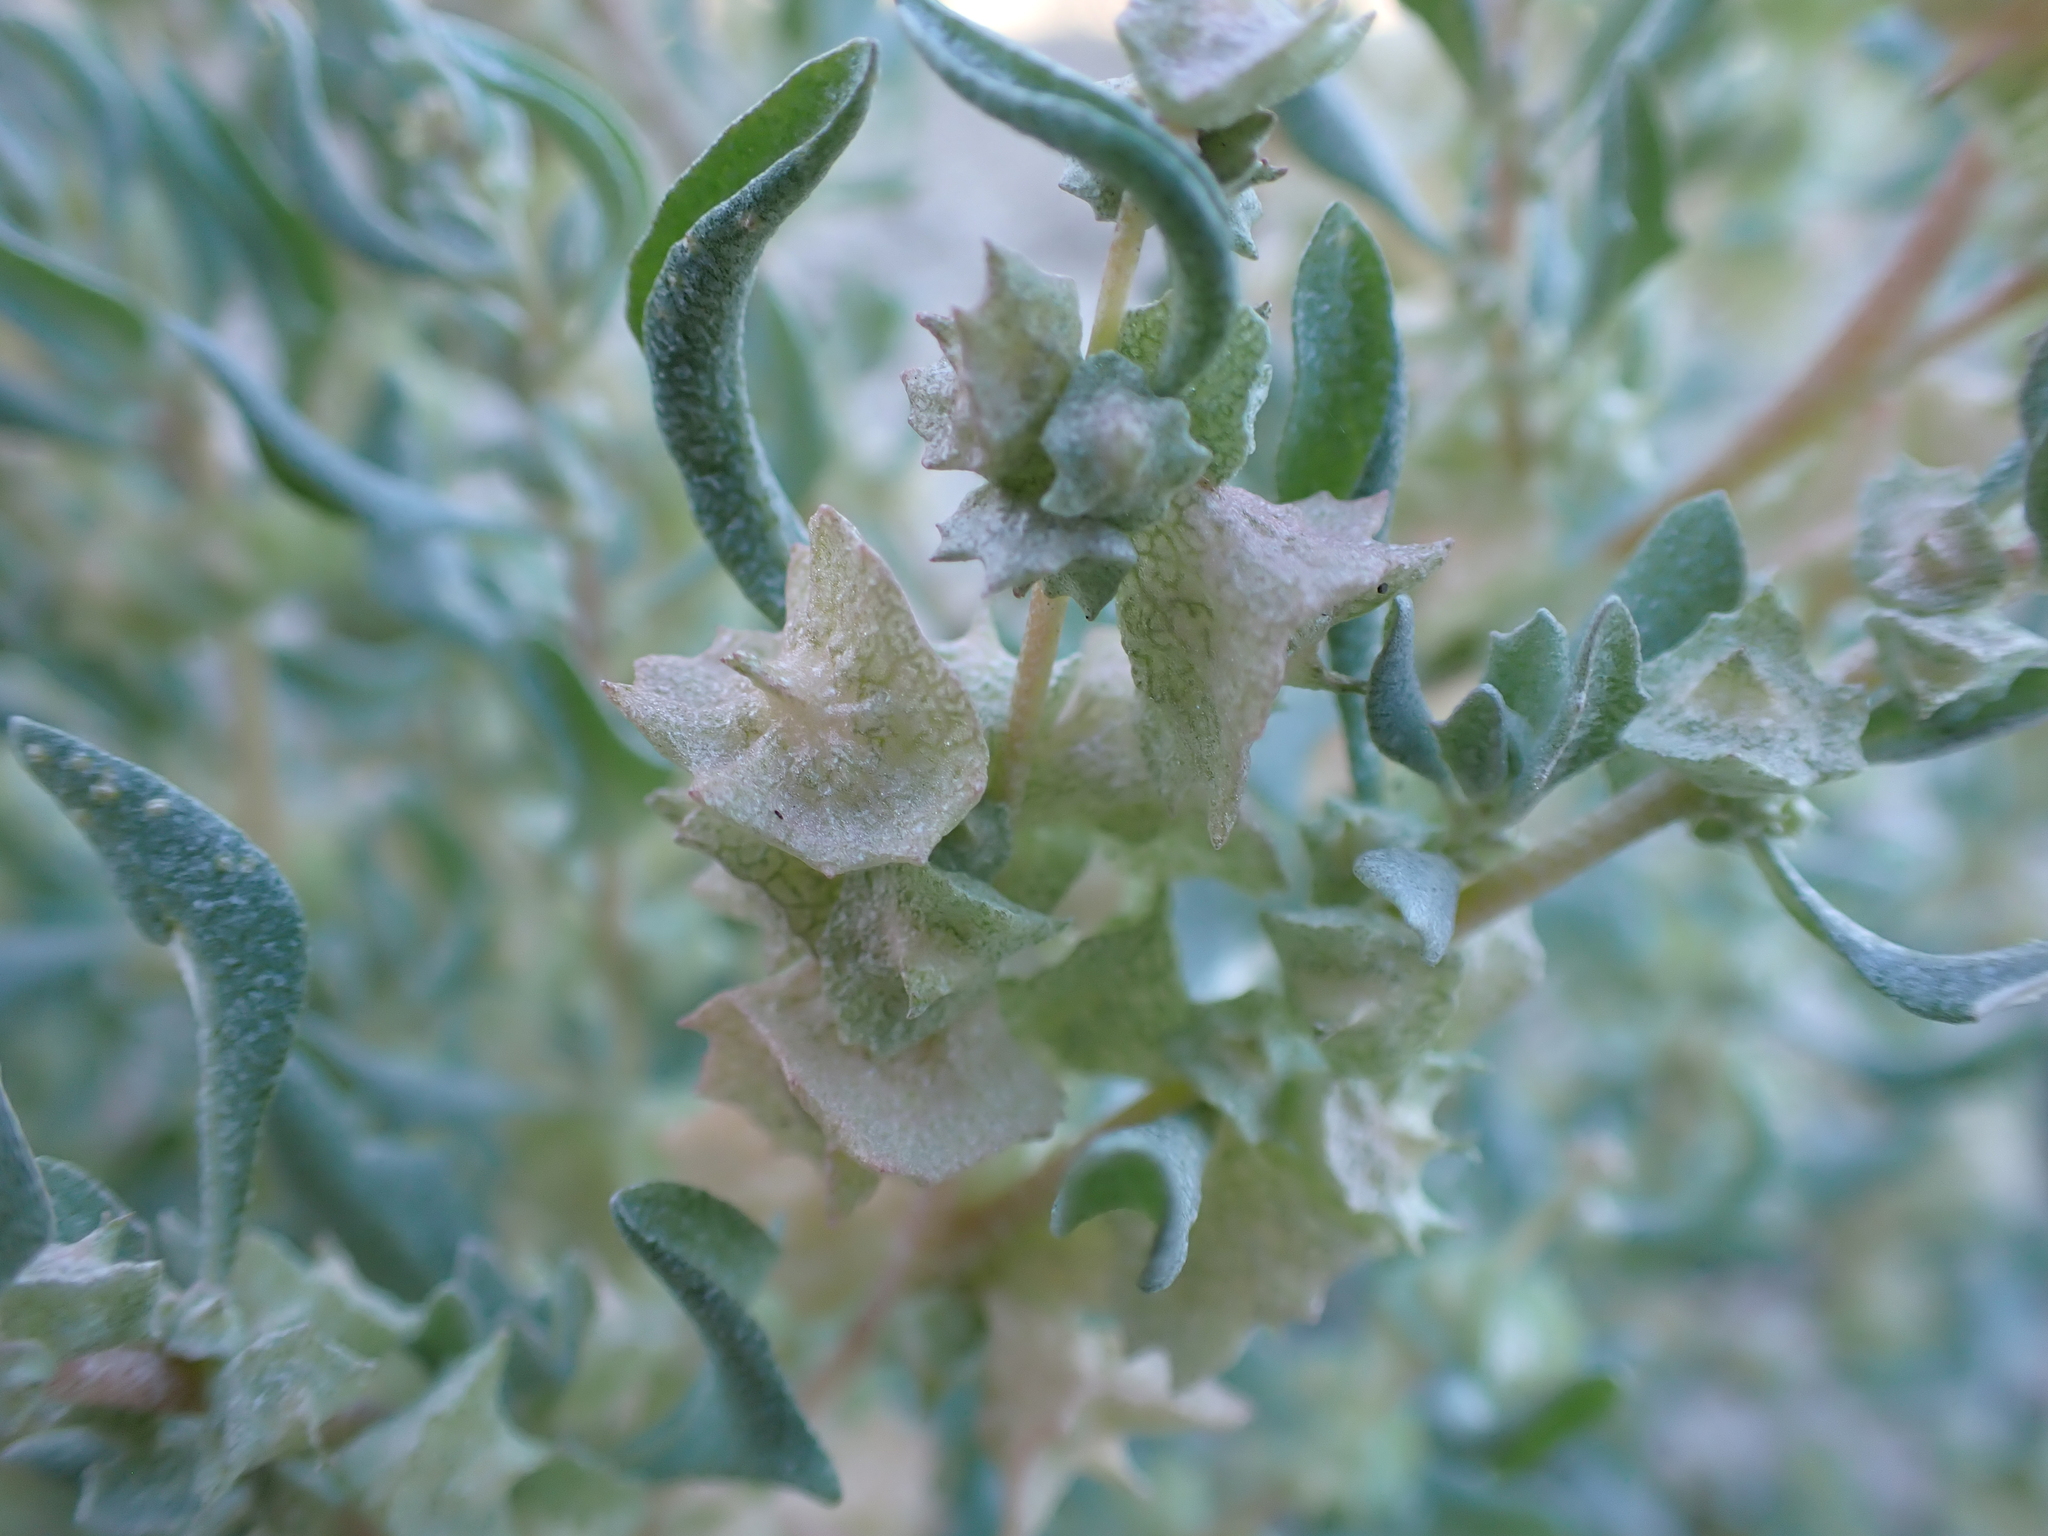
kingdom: Plantae
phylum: Tracheophyta
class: Magnoliopsida
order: Caryophyllales
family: Amaranthaceae
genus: Atriplex
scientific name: Atriplex lindleyi
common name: Lindley's saltbush
